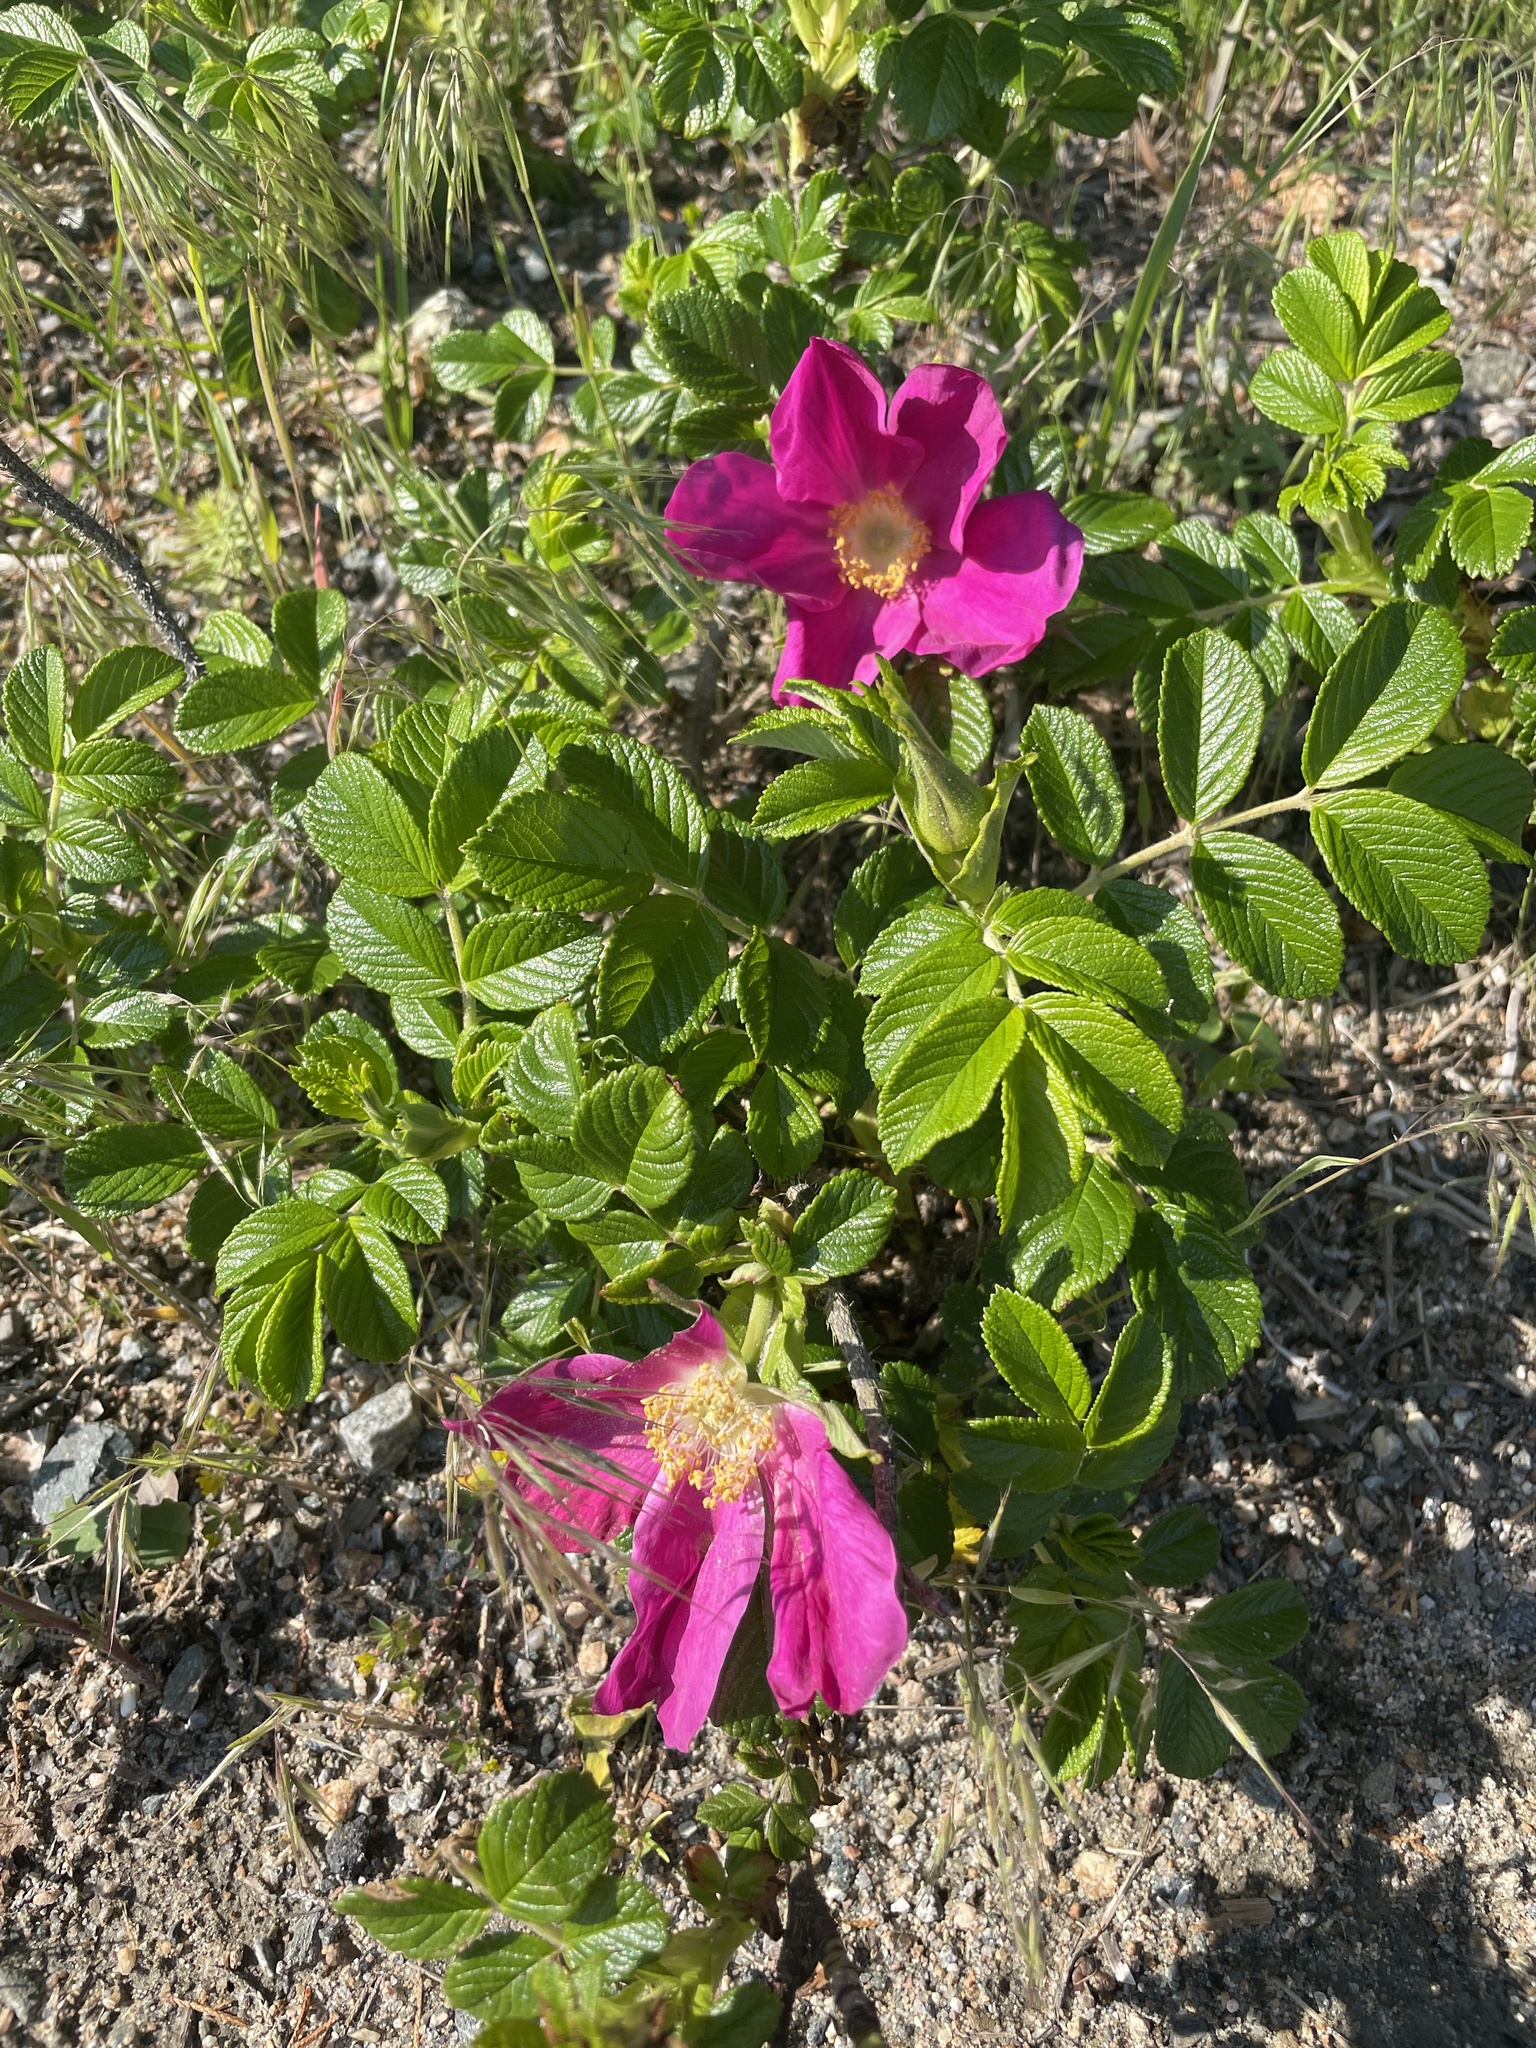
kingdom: Plantae
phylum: Tracheophyta
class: Magnoliopsida
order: Rosales
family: Rosaceae
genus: Rosa
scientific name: Rosa rugosa
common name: Japanese rose
